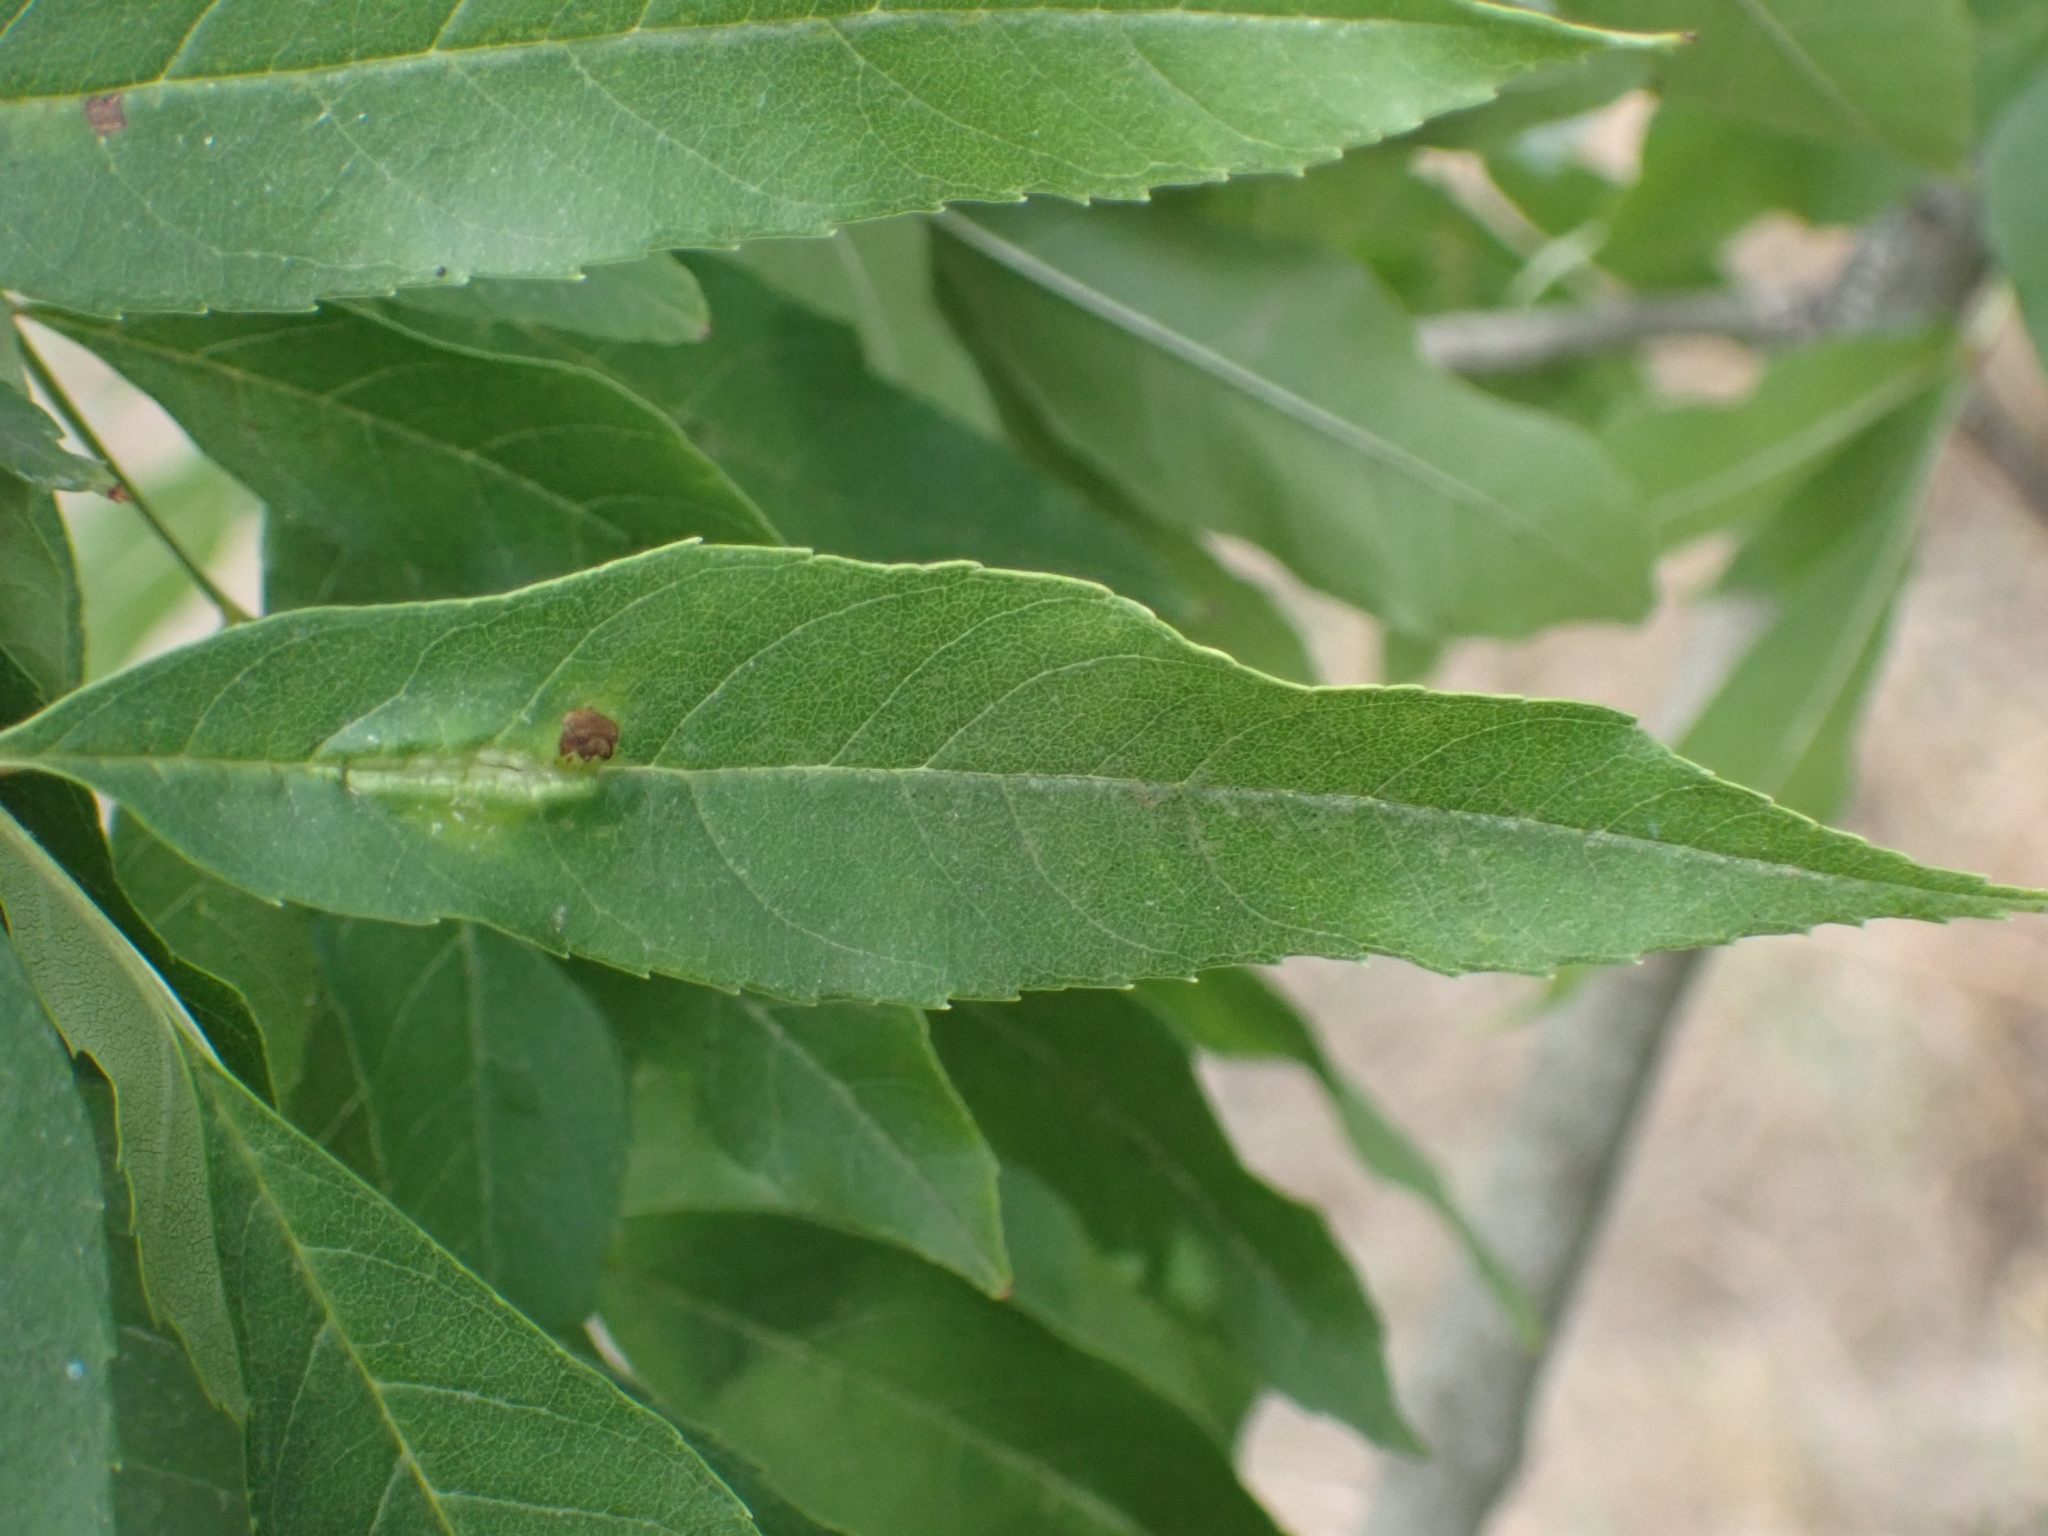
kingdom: Animalia
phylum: Arthropoda
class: Insecta
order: Diptera
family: Cecidomyiidae
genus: Dasineura
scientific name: Dasineura fraxini
